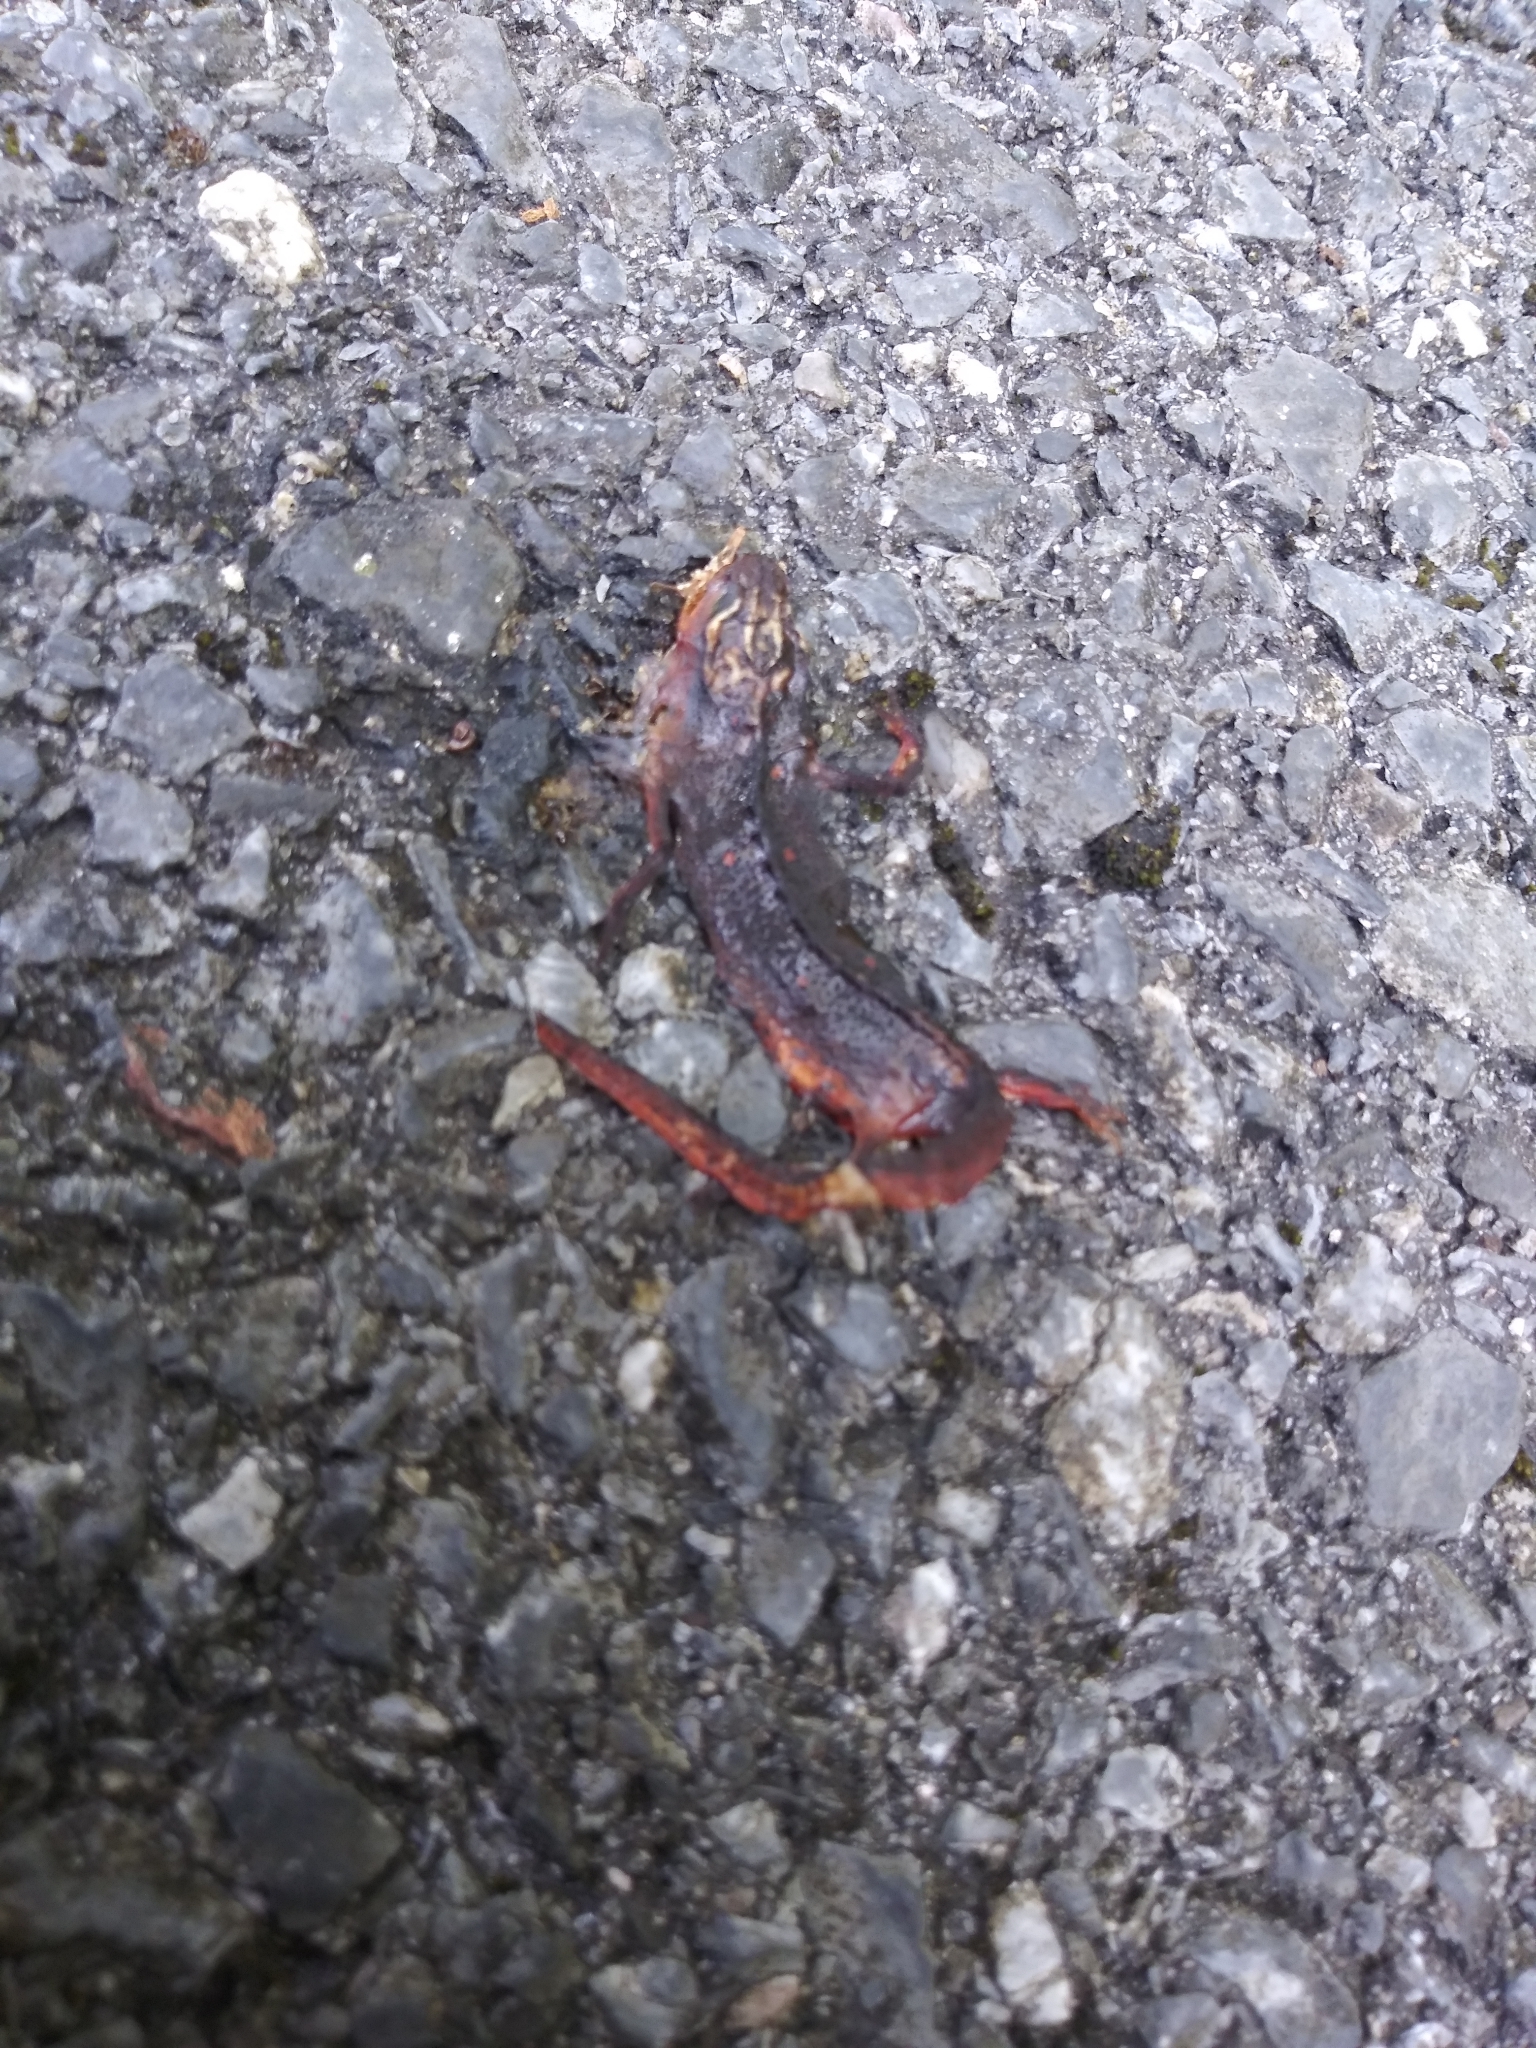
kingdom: Animalia
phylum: Chordata
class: Amphibia
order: Caudata
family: Salamandridae
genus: Notophthalmus
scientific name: Notophthalmus viridescens
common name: Eastern newt
